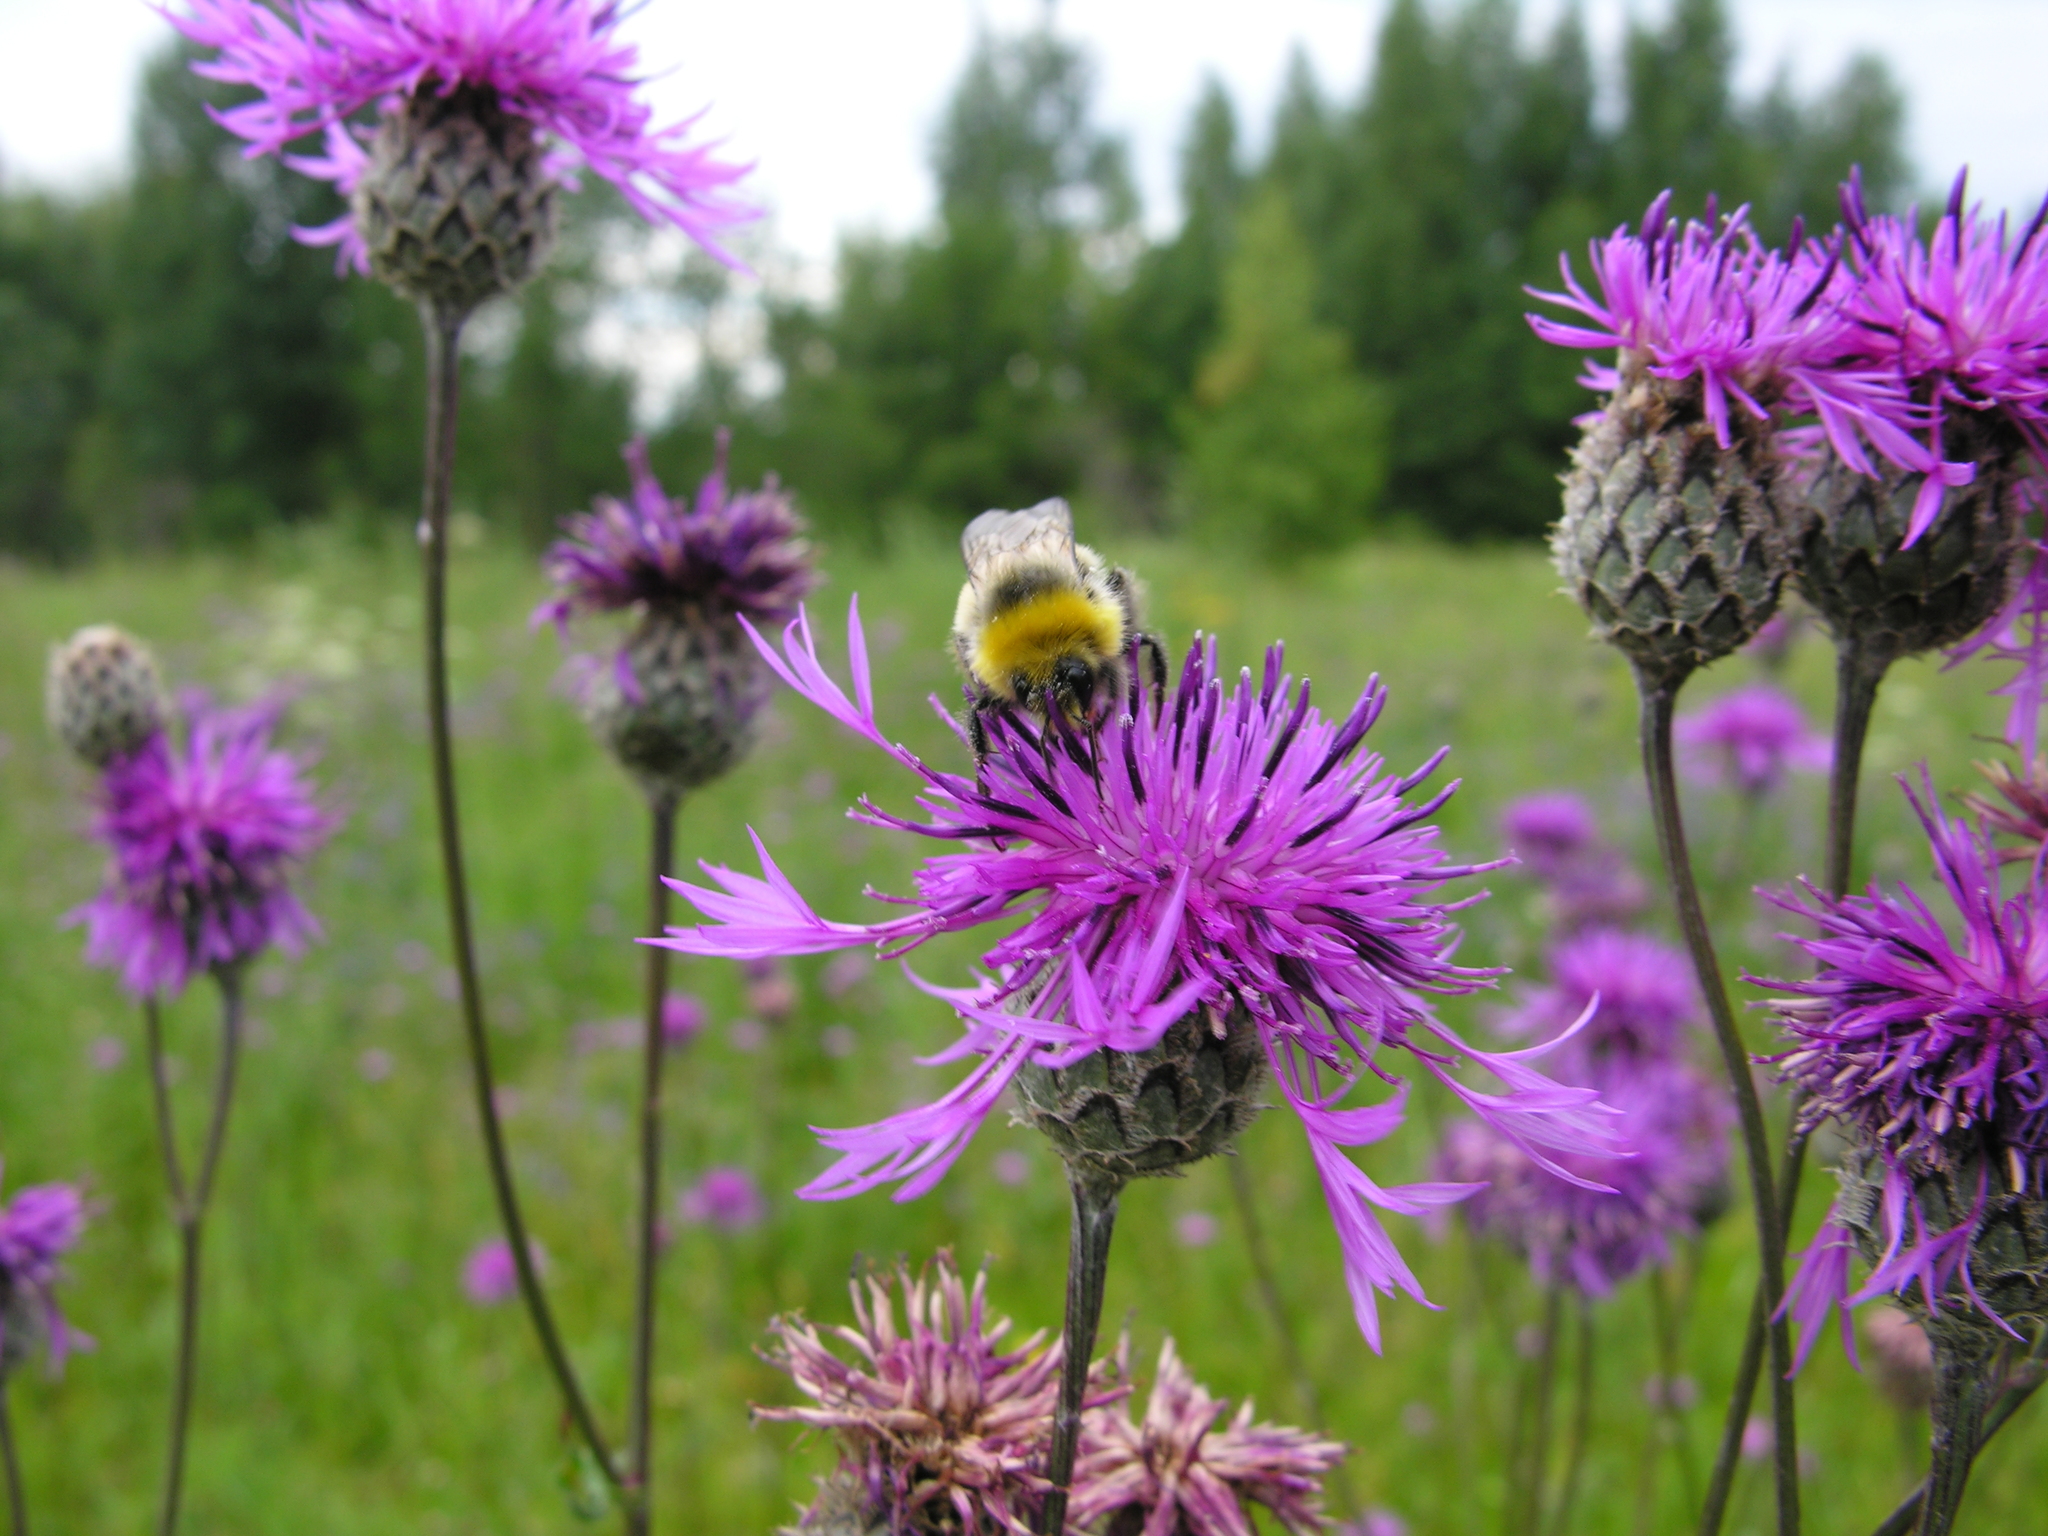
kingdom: Plantae
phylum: Tracheophyta
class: Magnoliopsida
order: Asterales
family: Asteraceae
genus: Centaurea
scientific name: Centaurea scabiosa
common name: Greater knapweed
